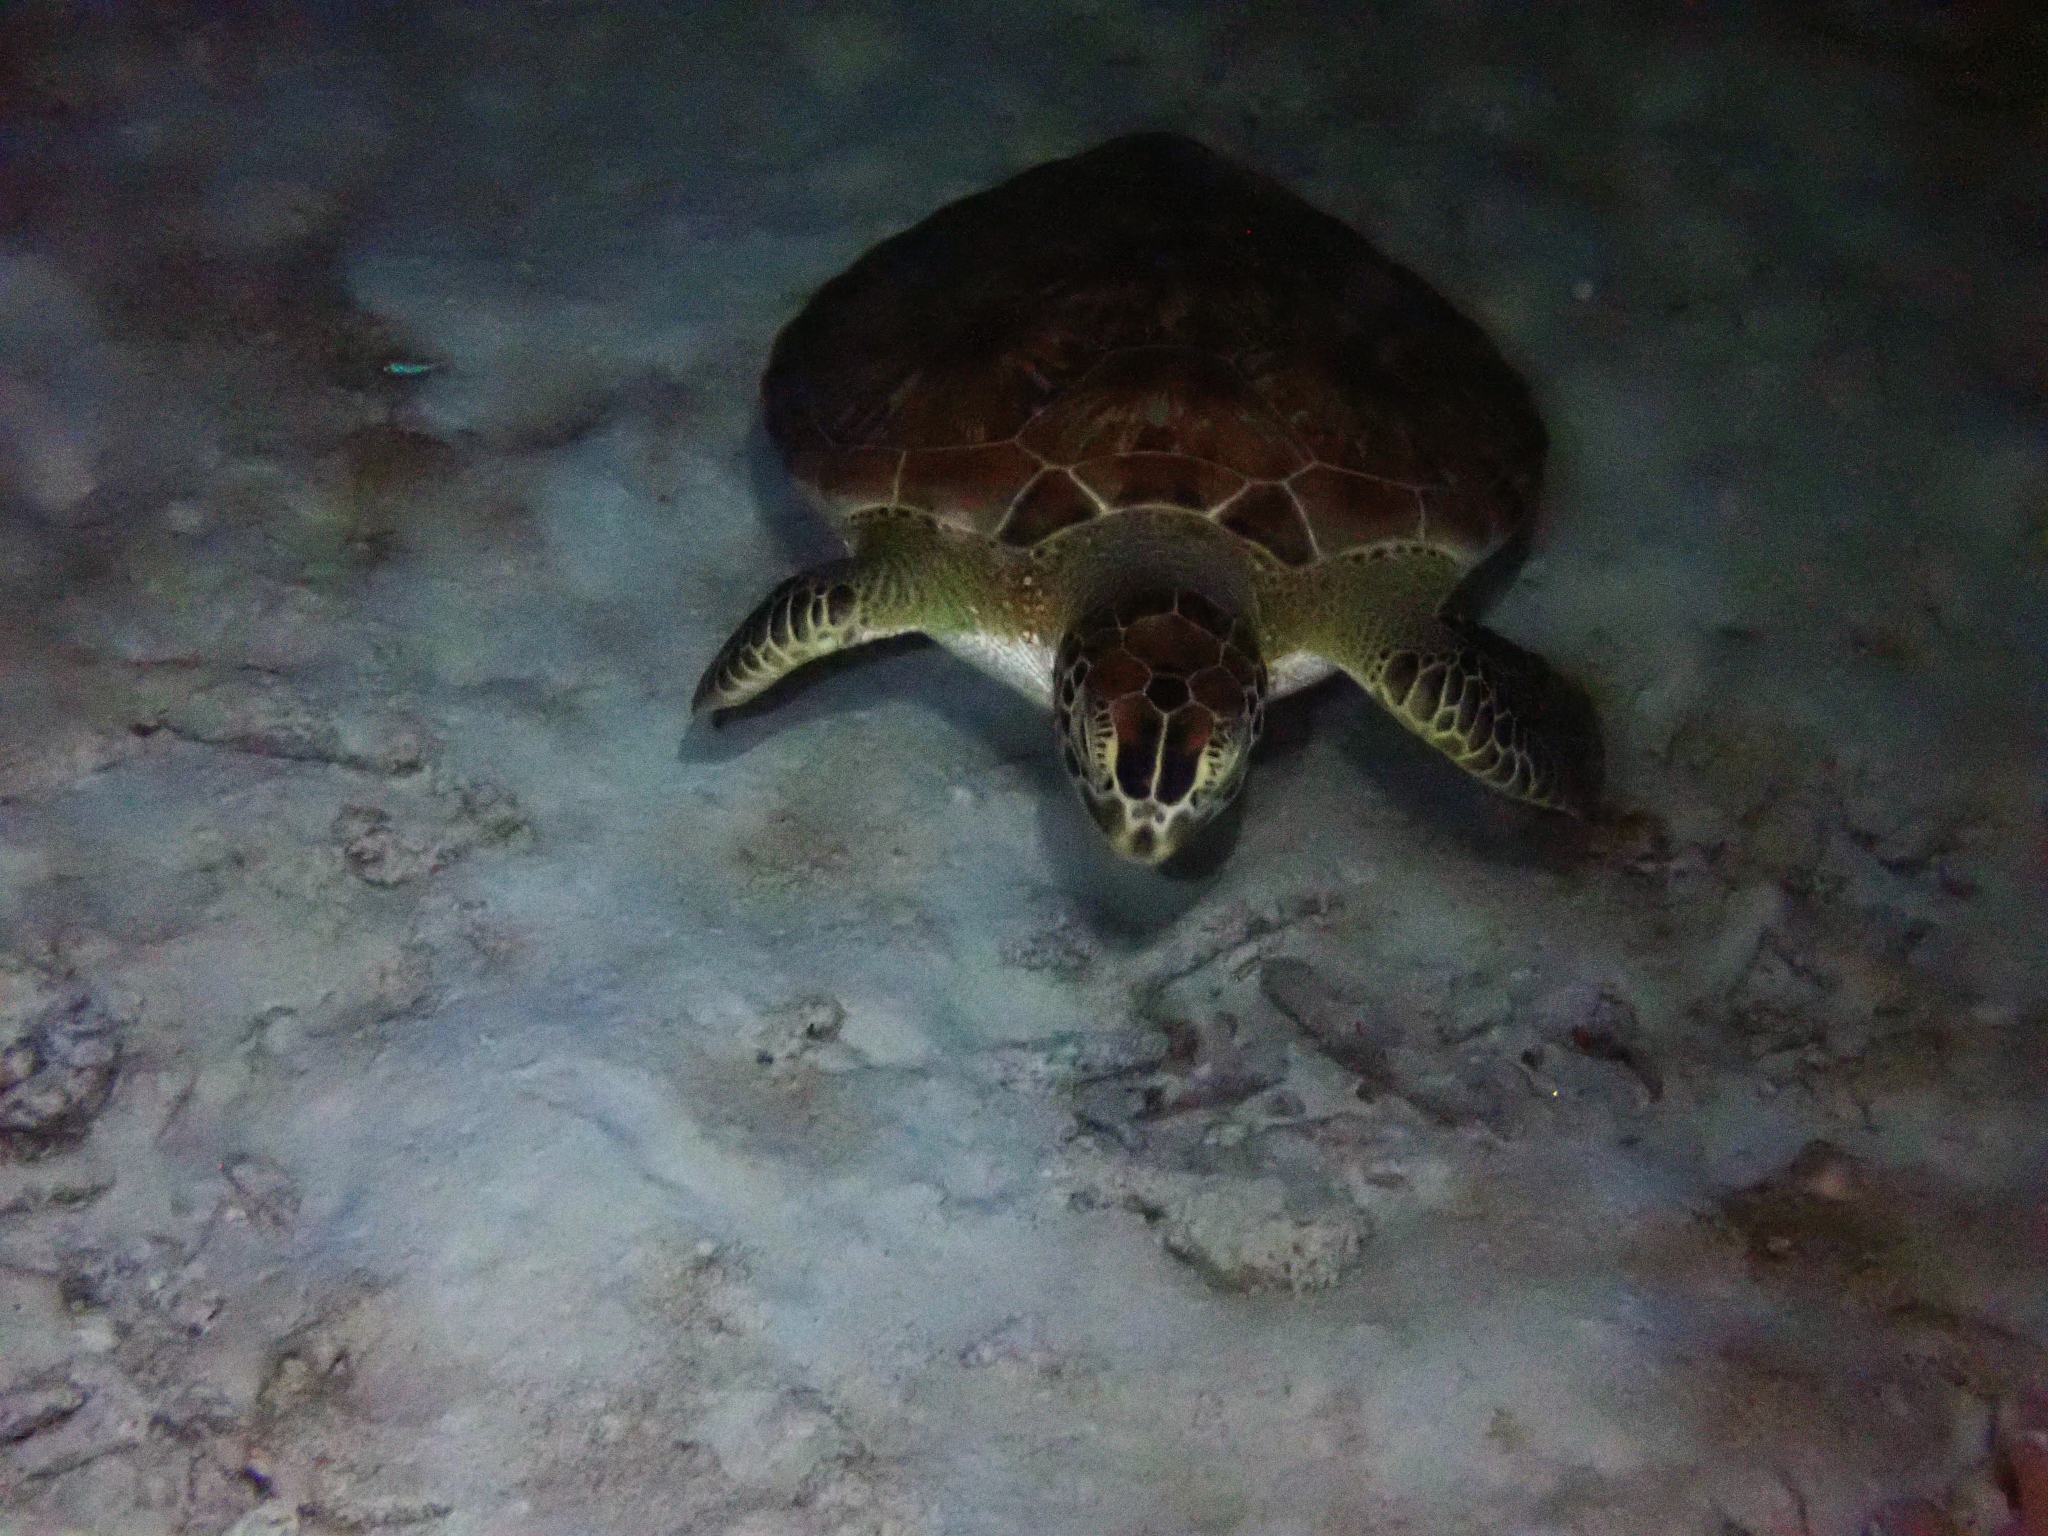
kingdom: Animalia
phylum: Chordata
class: Testudines
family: Cheloniidae
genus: Chelonia
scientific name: Chelonia mydas
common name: Green turtle
